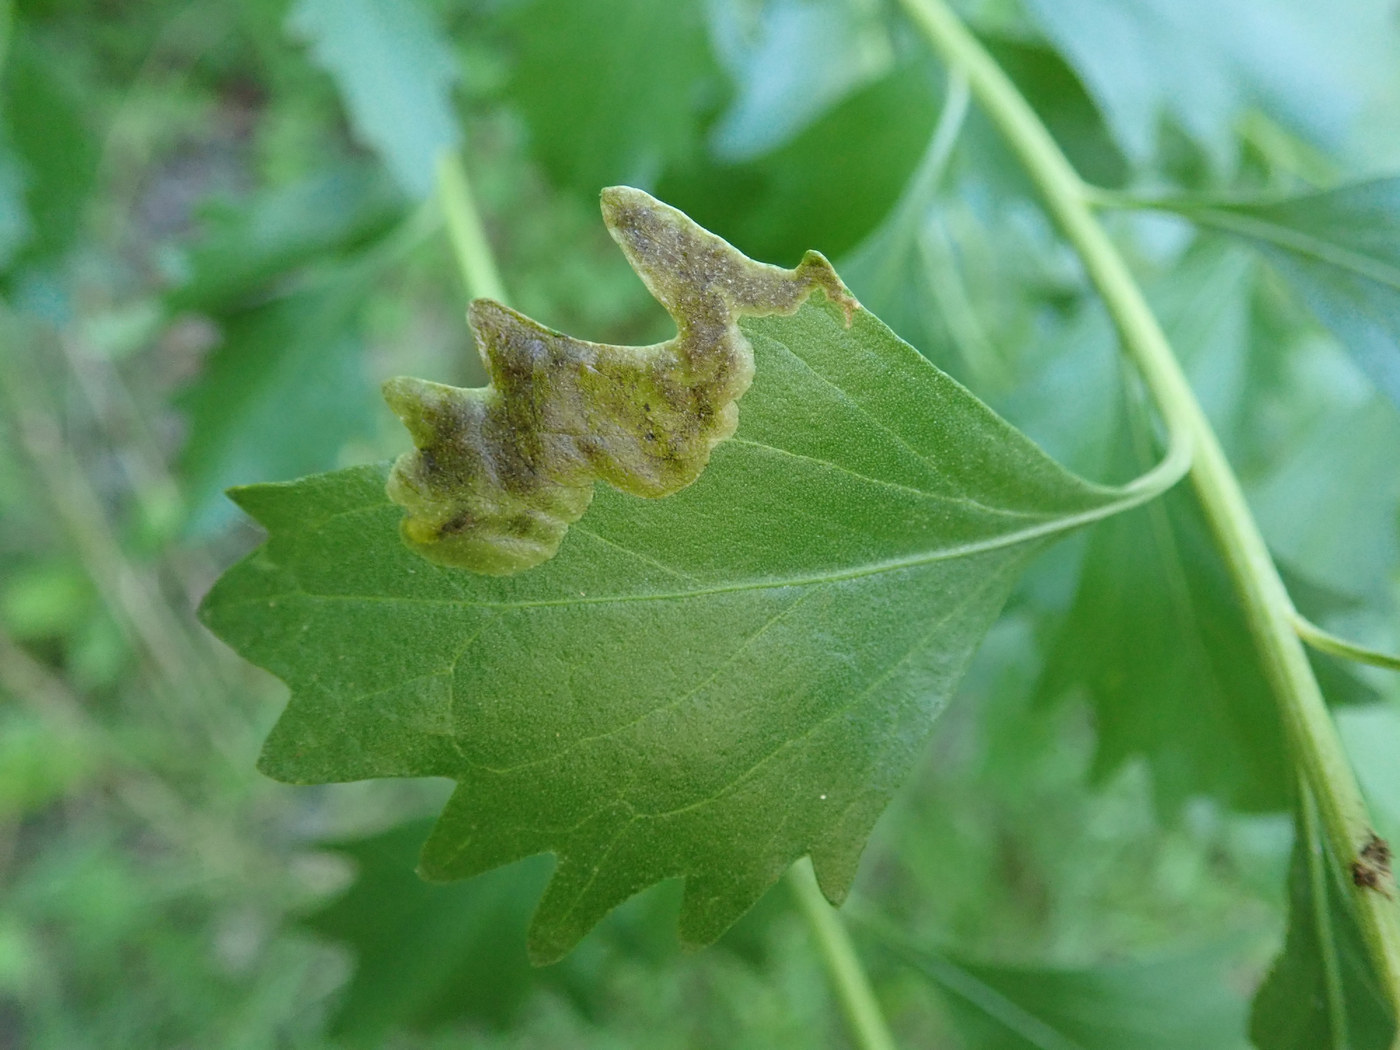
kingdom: Animalia
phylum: Arthropoda
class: Insecta
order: Diptera
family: Agromyzidae
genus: Nemorimyza
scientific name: Nemorimyza posticata
